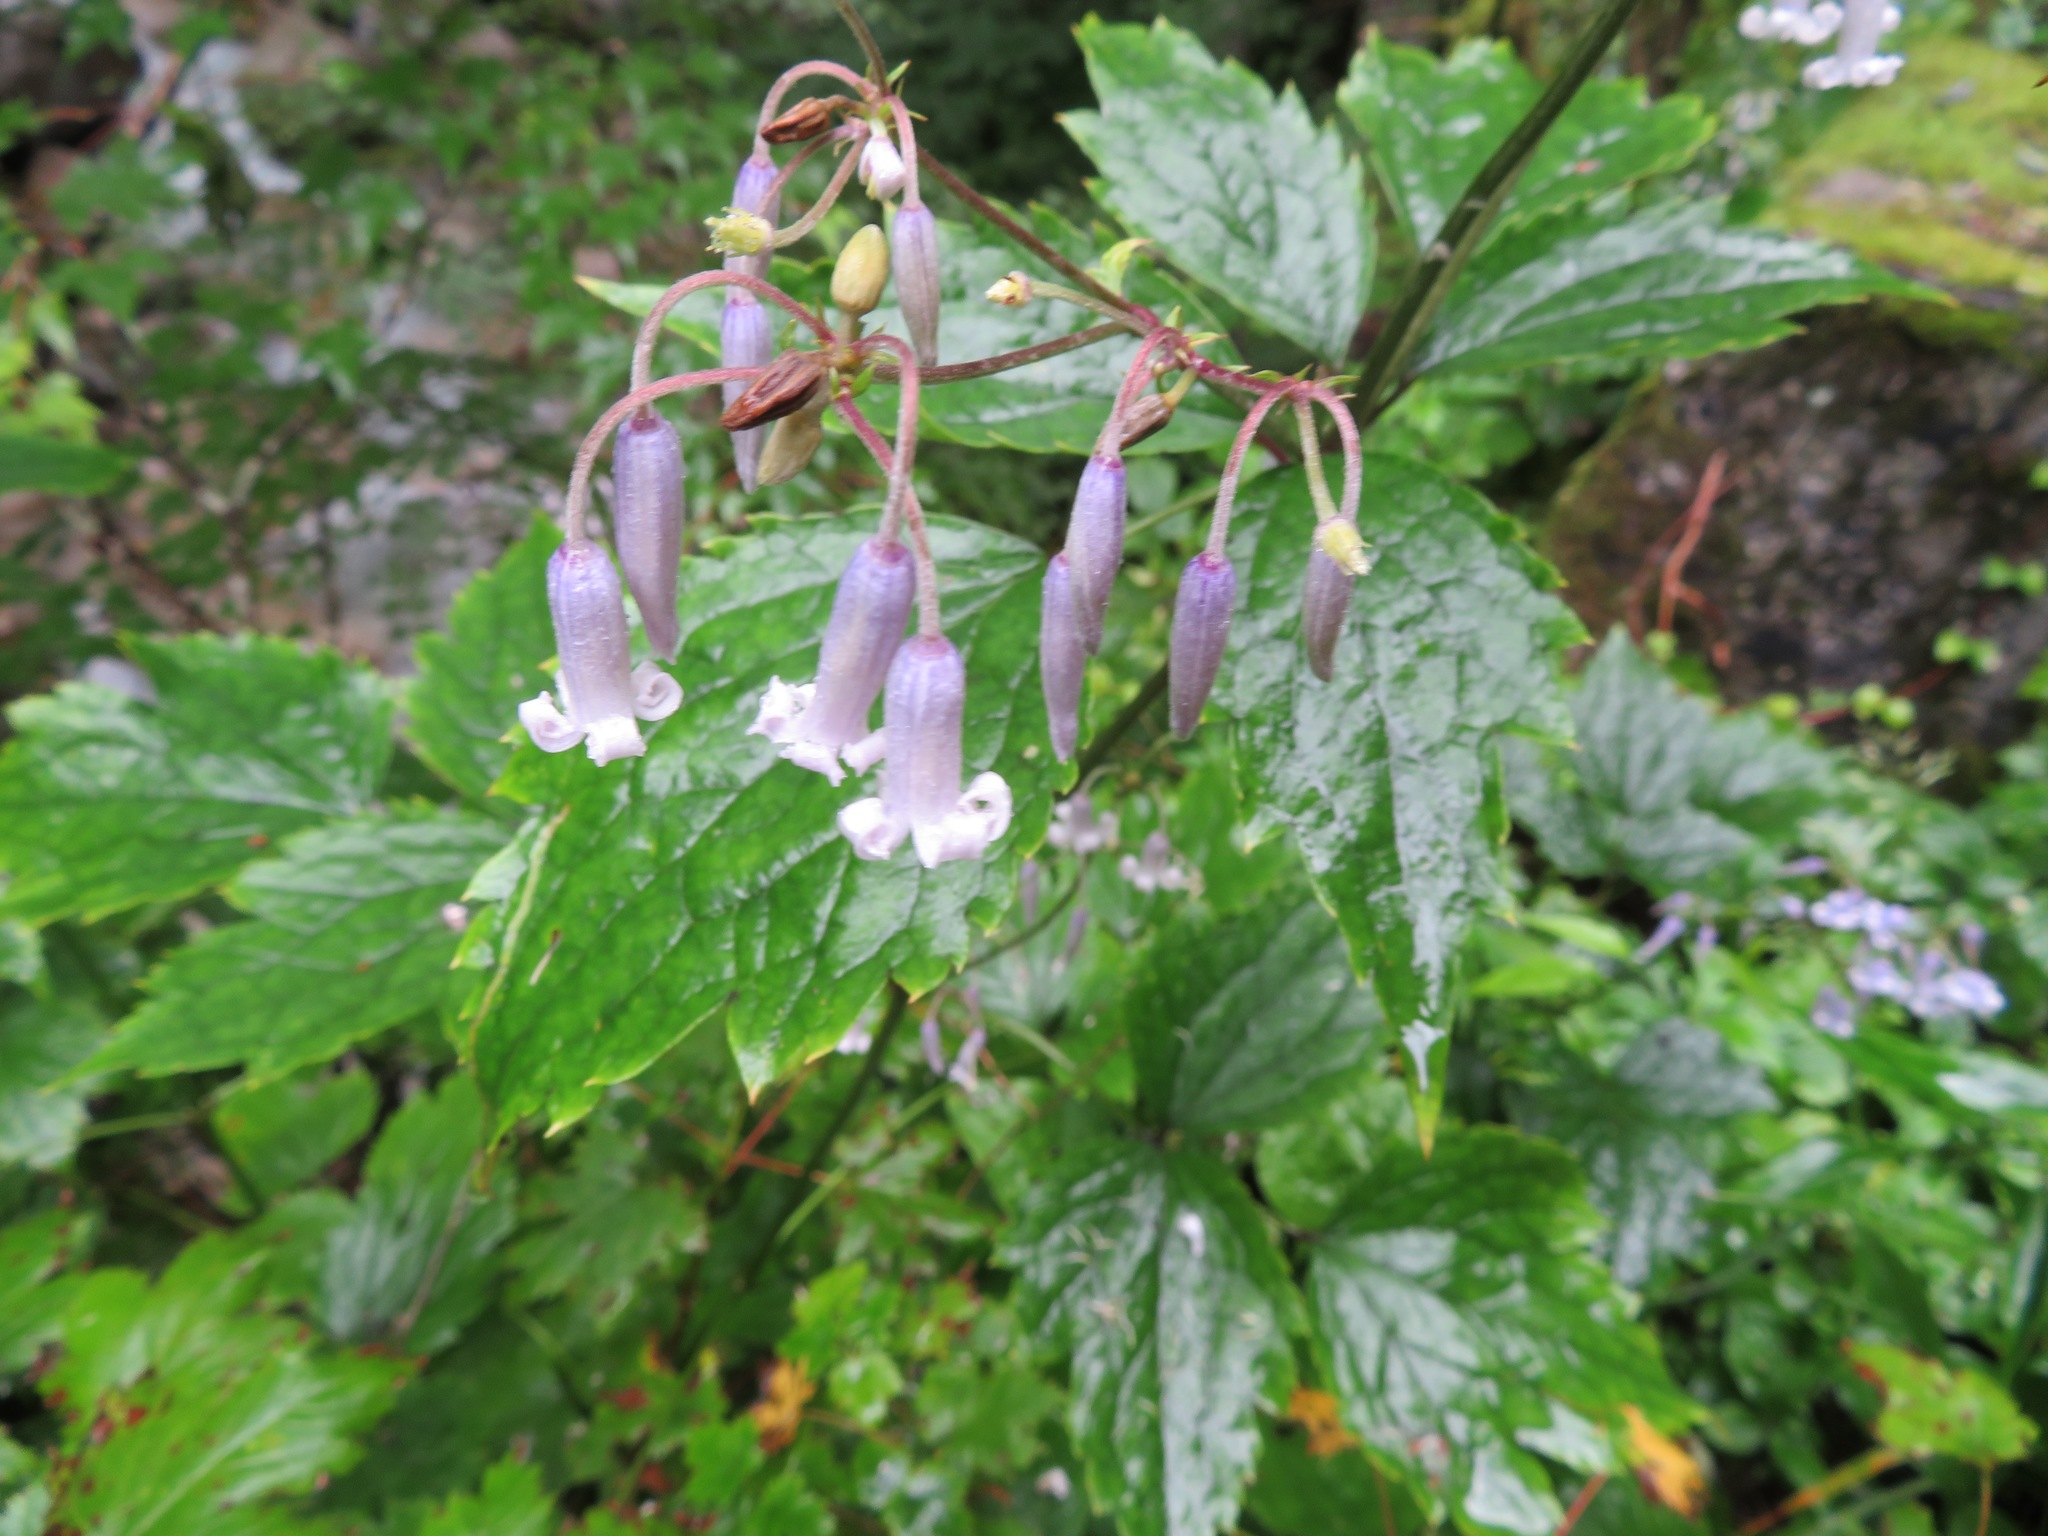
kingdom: Plantae
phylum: Tracheophyta
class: Magnoliopsida
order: Ranunculales
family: Ranunculaceae
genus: Clematis
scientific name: Clematis stans
